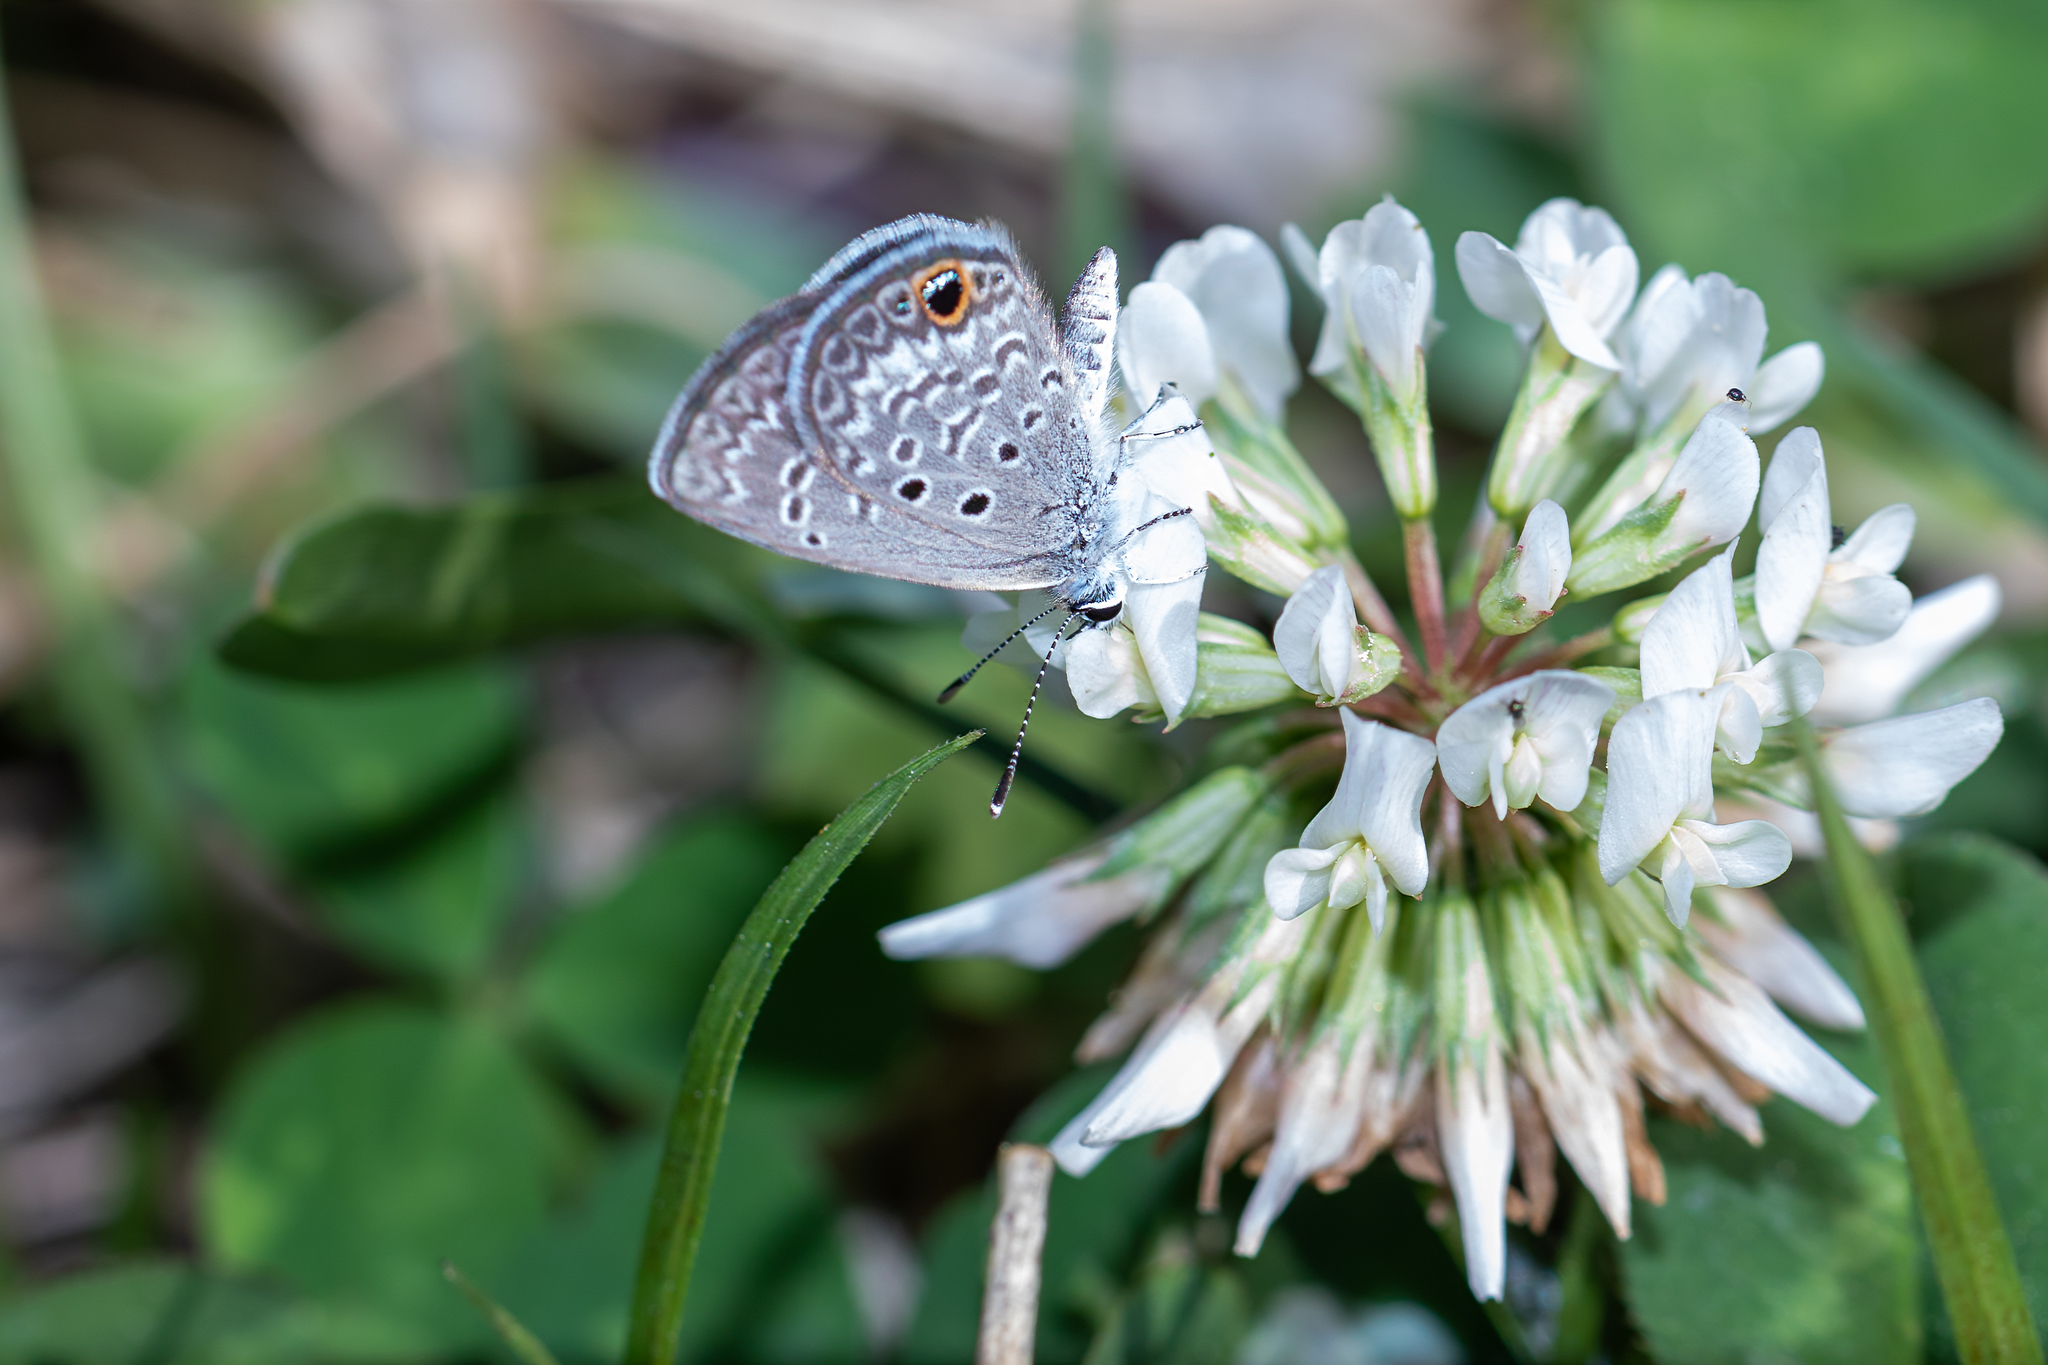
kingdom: Animalia
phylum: Arthropoda
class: Insecta
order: Lepidoptera
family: Lycaenidae
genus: Hemiargus
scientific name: Hemiargus ceraunus
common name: Ceraunus blue
